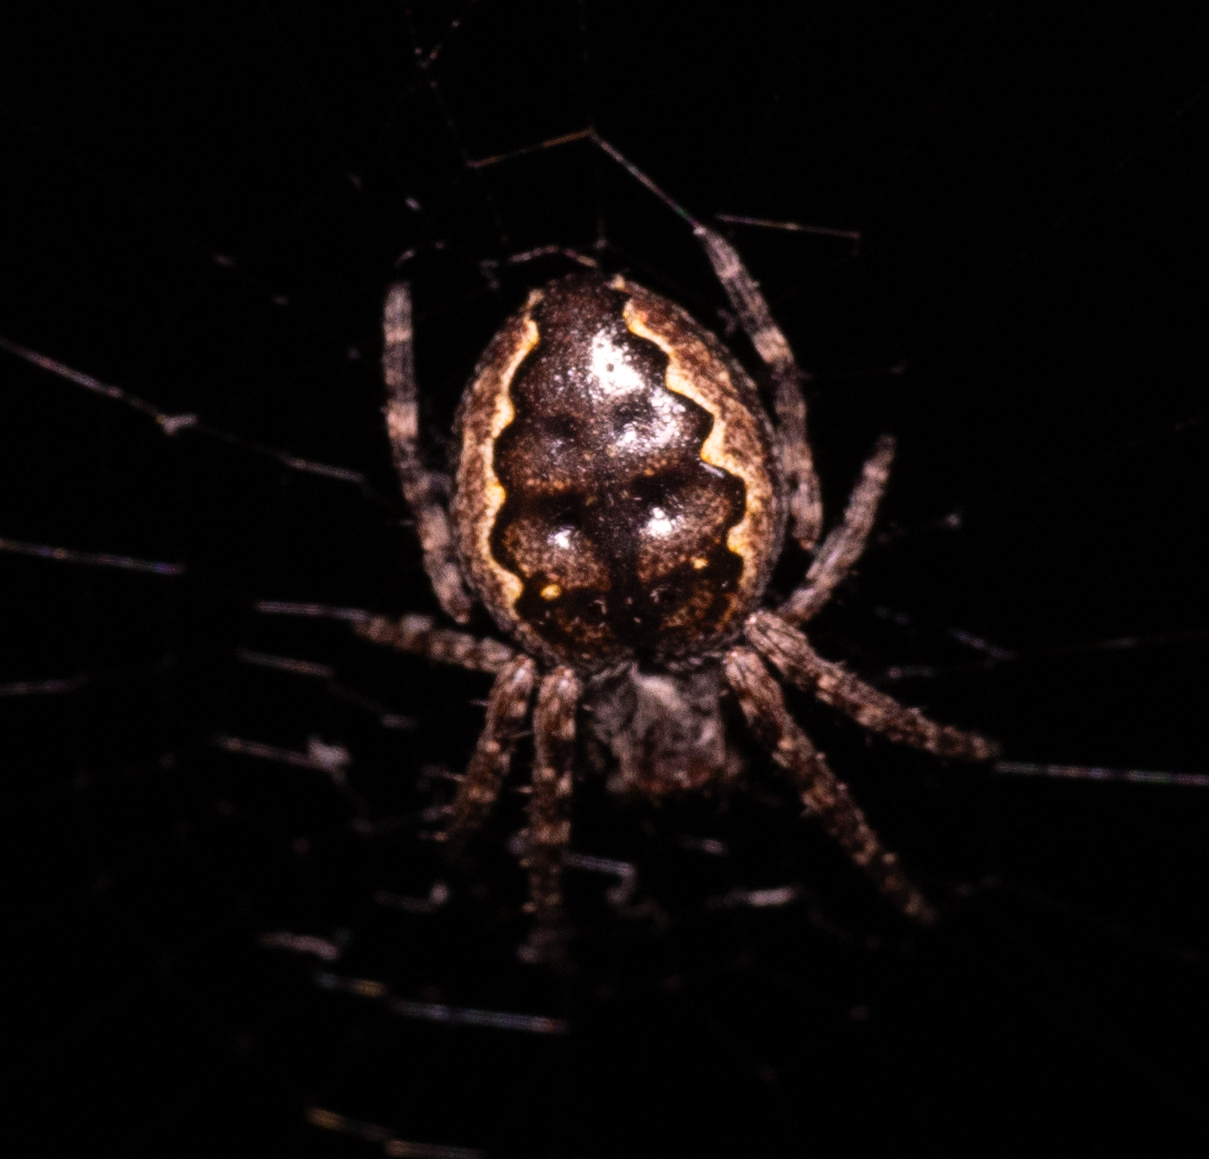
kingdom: Animalia
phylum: Arthropoda
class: Arachnida
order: Araneae
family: Araneidae
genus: Nuctenea
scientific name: Nuctenea umbratica
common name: Toad spider
